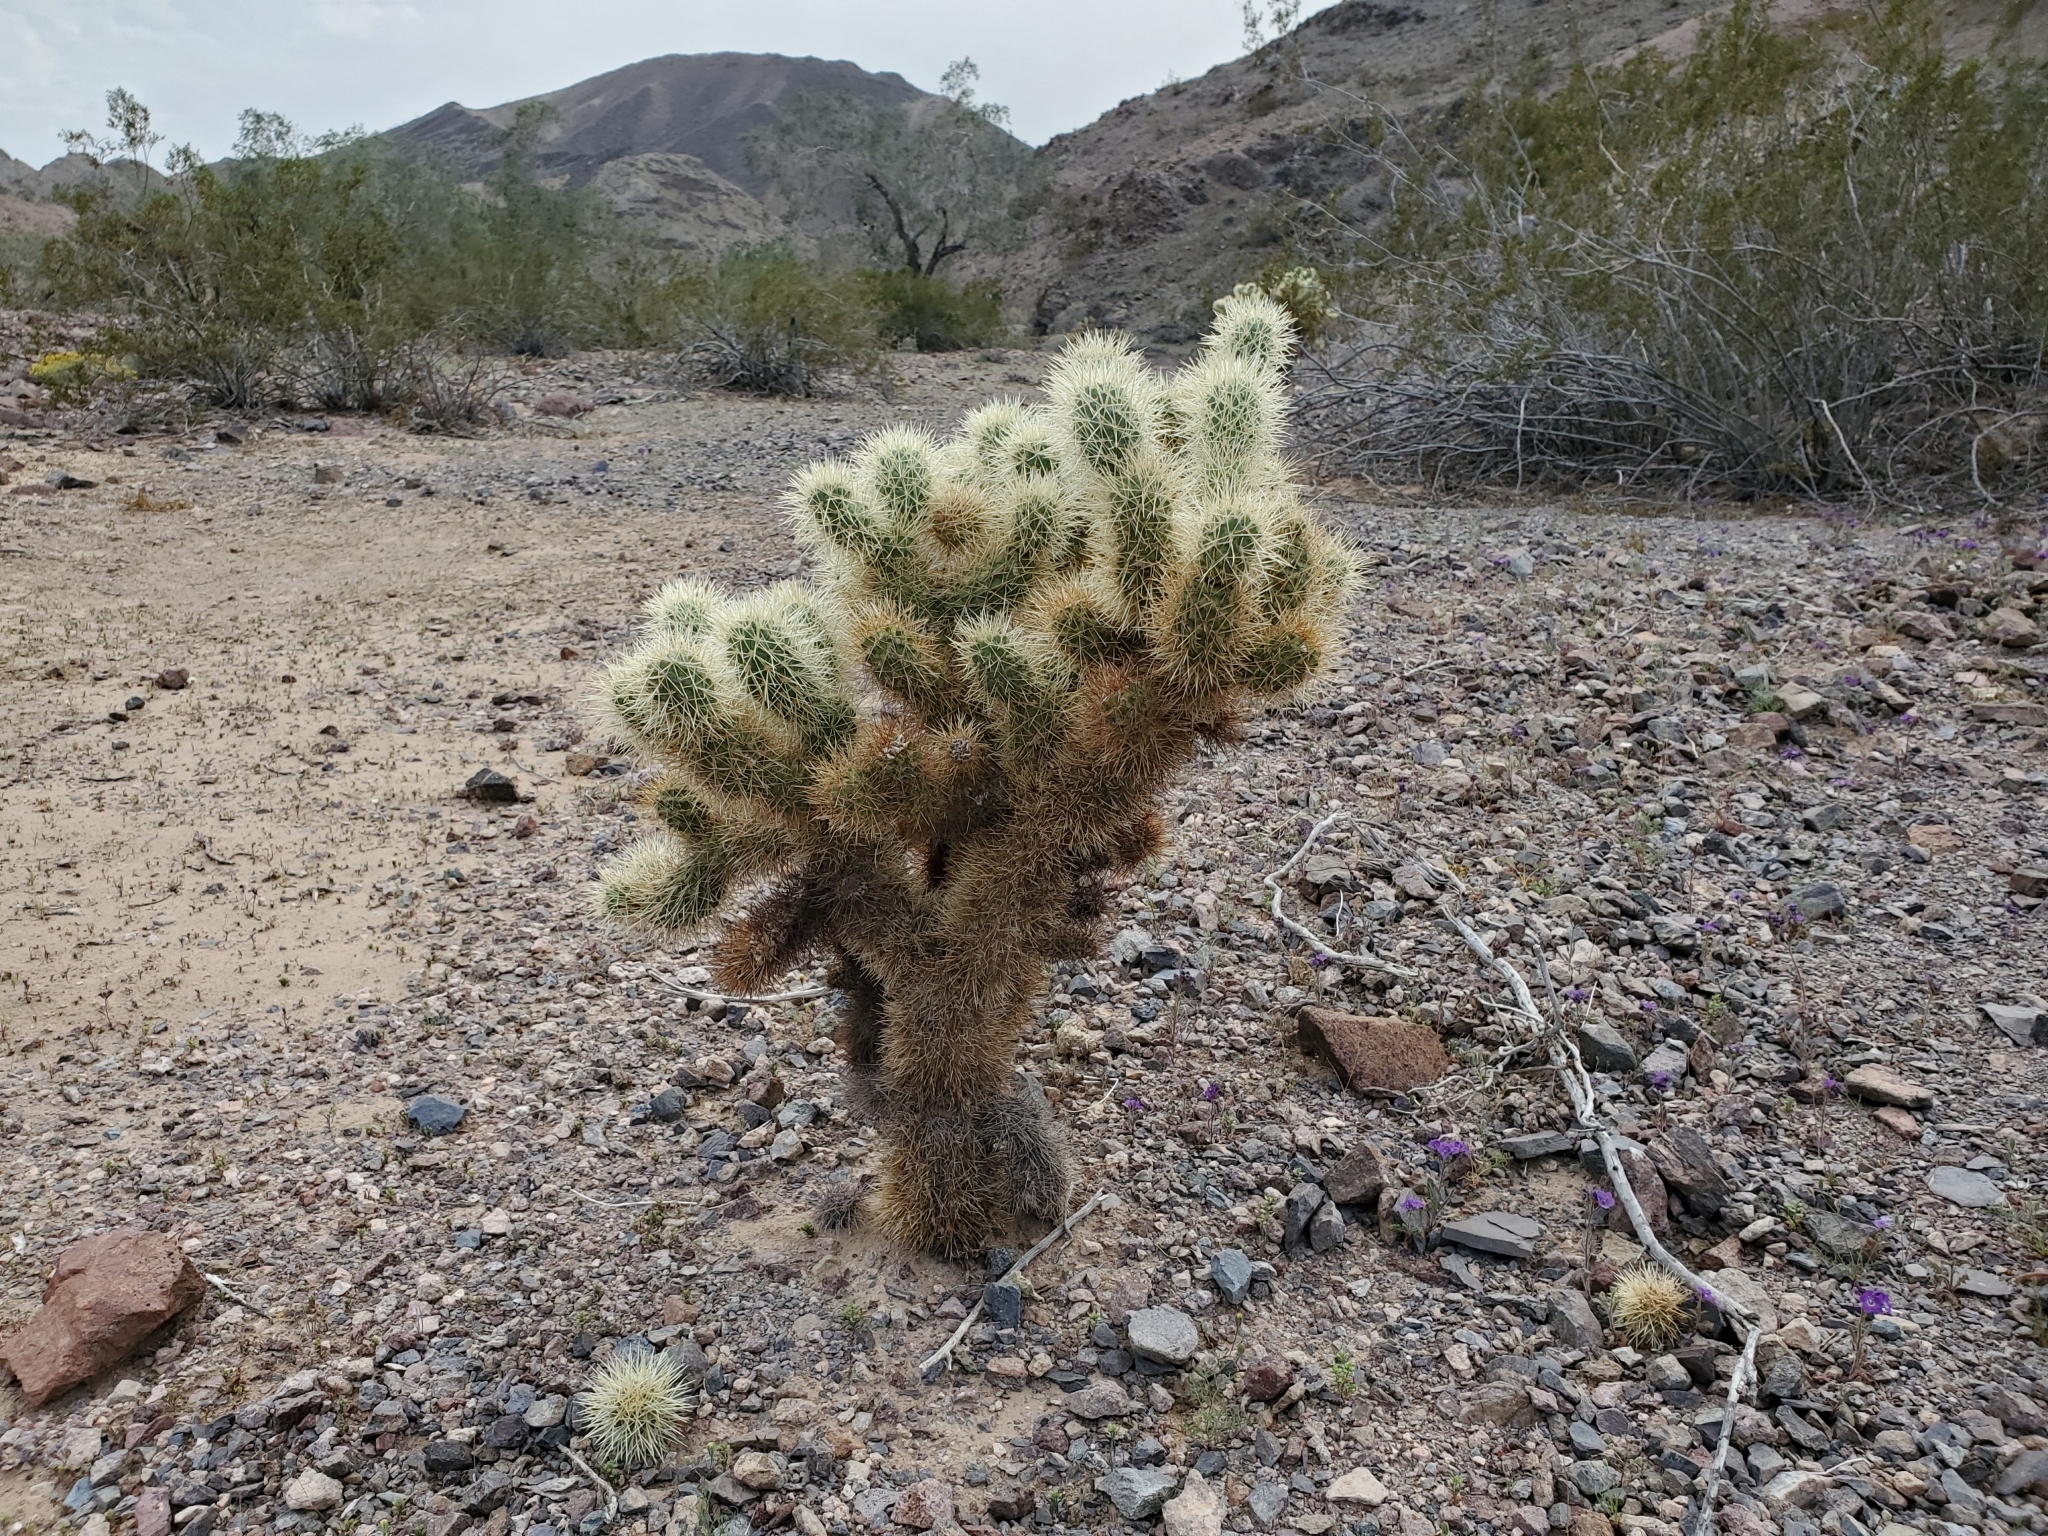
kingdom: Plantae
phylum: Tracheophyta
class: Magnoliopsida
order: Caryophyllales
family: Cactaceae
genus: Cylindropuntia
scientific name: Cylindropuntia fosbergii
